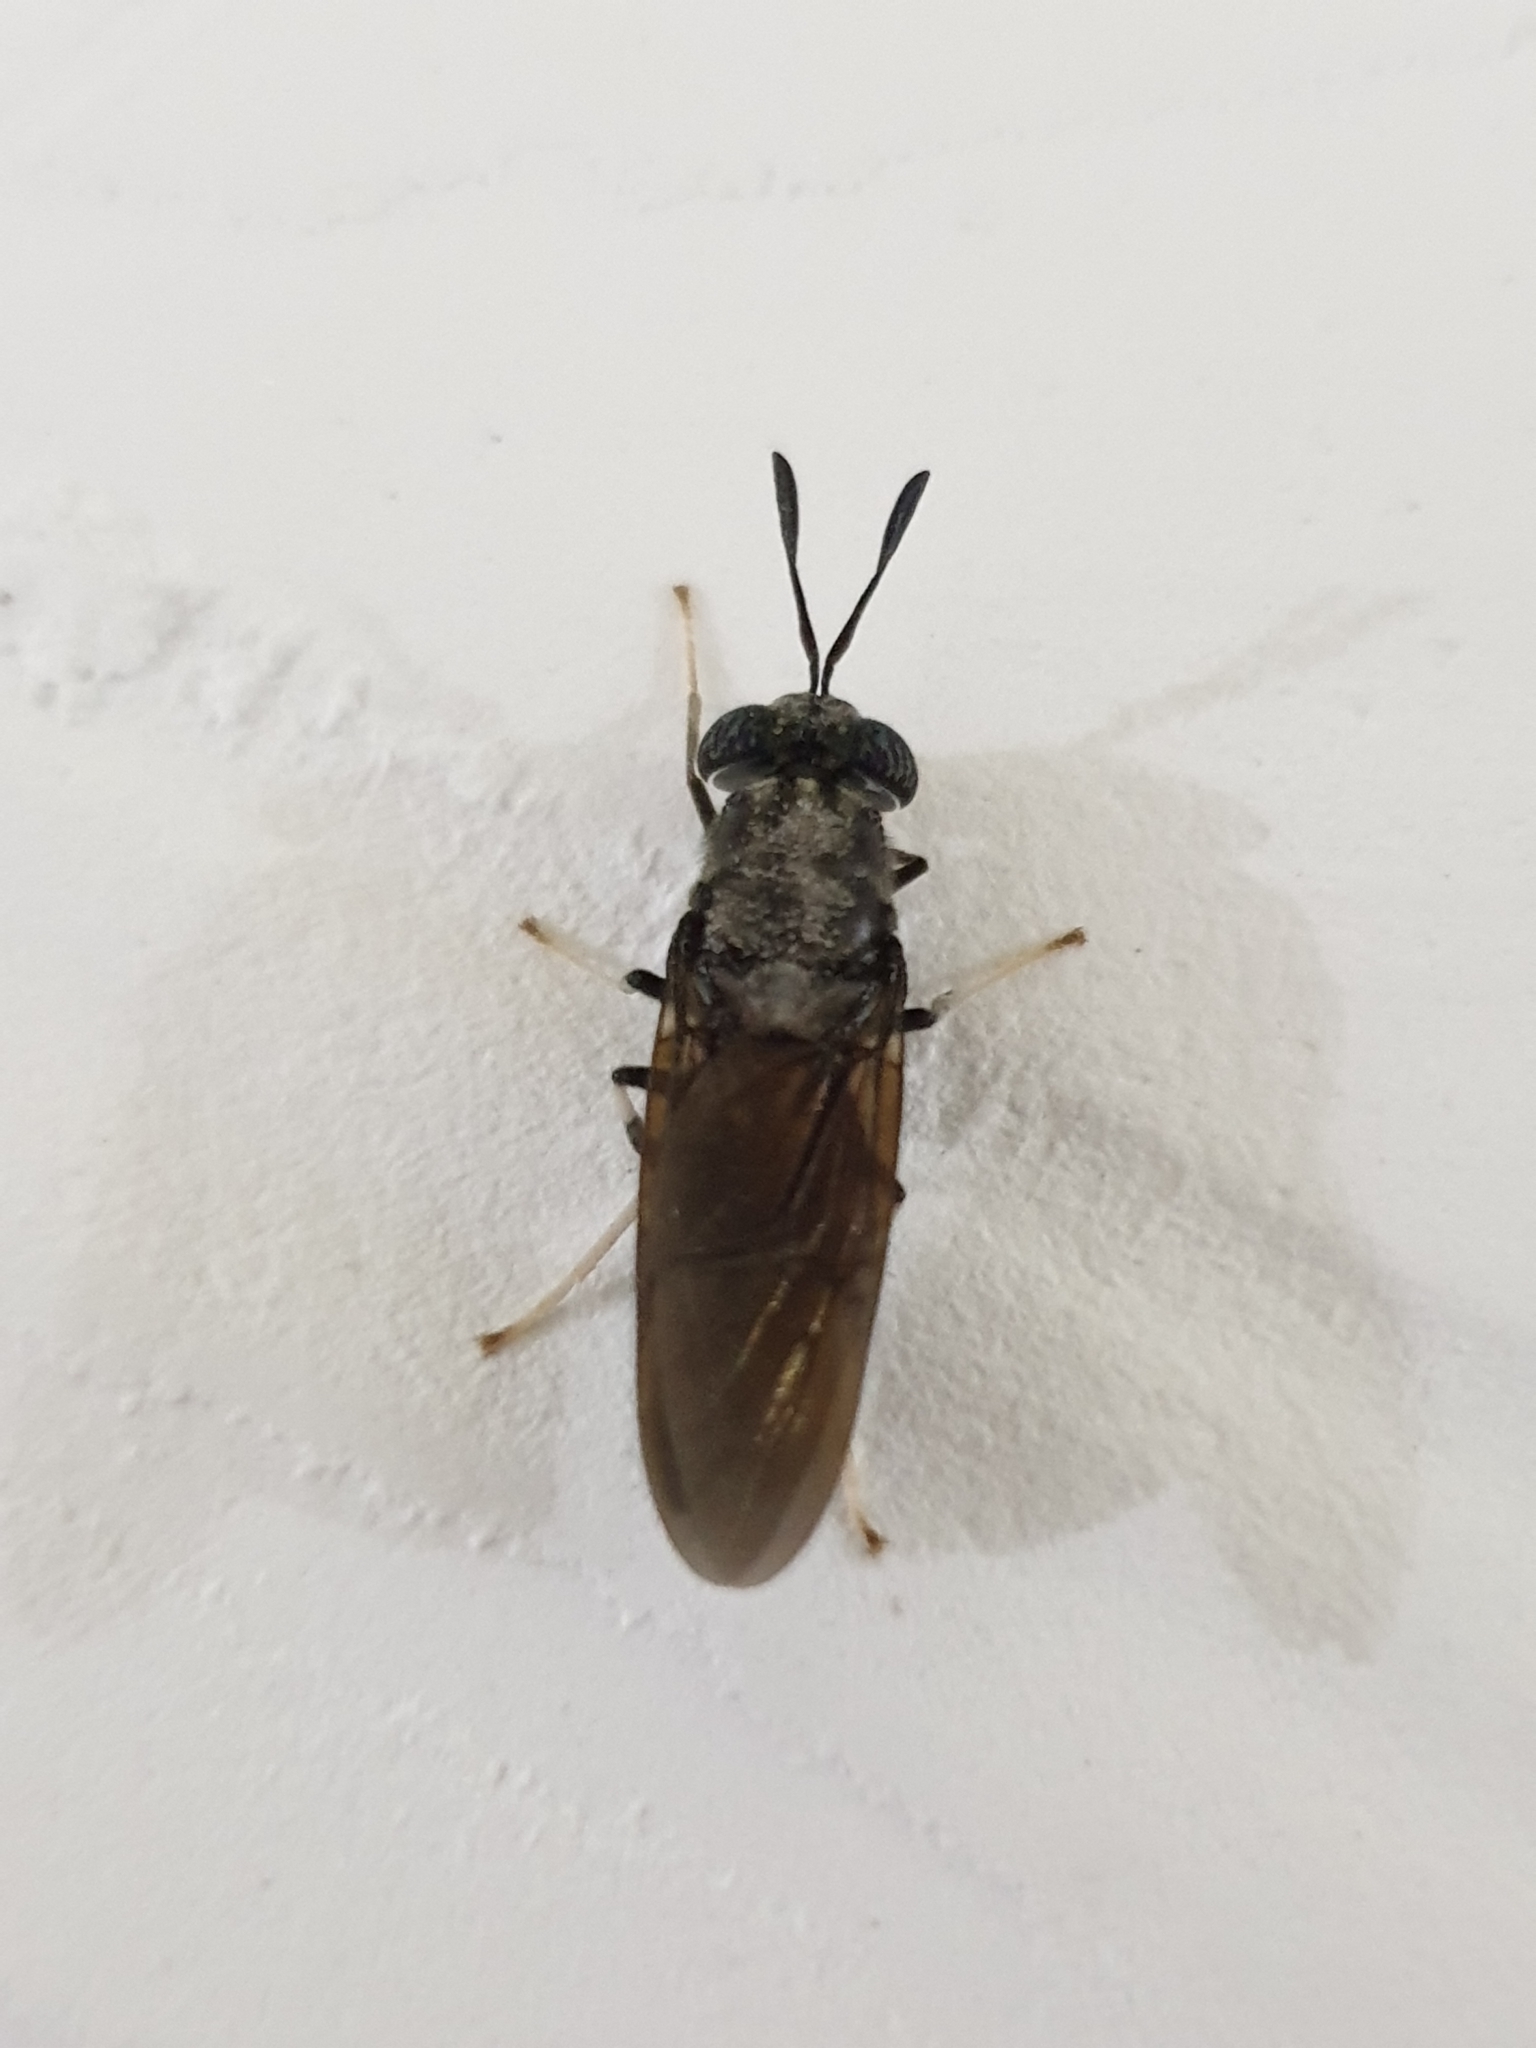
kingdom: Animalia
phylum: Arthropoda
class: Insecta
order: Diptera
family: Stratiomyidae
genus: Hermetia
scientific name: Hermetia illucens
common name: Black soldier fly
